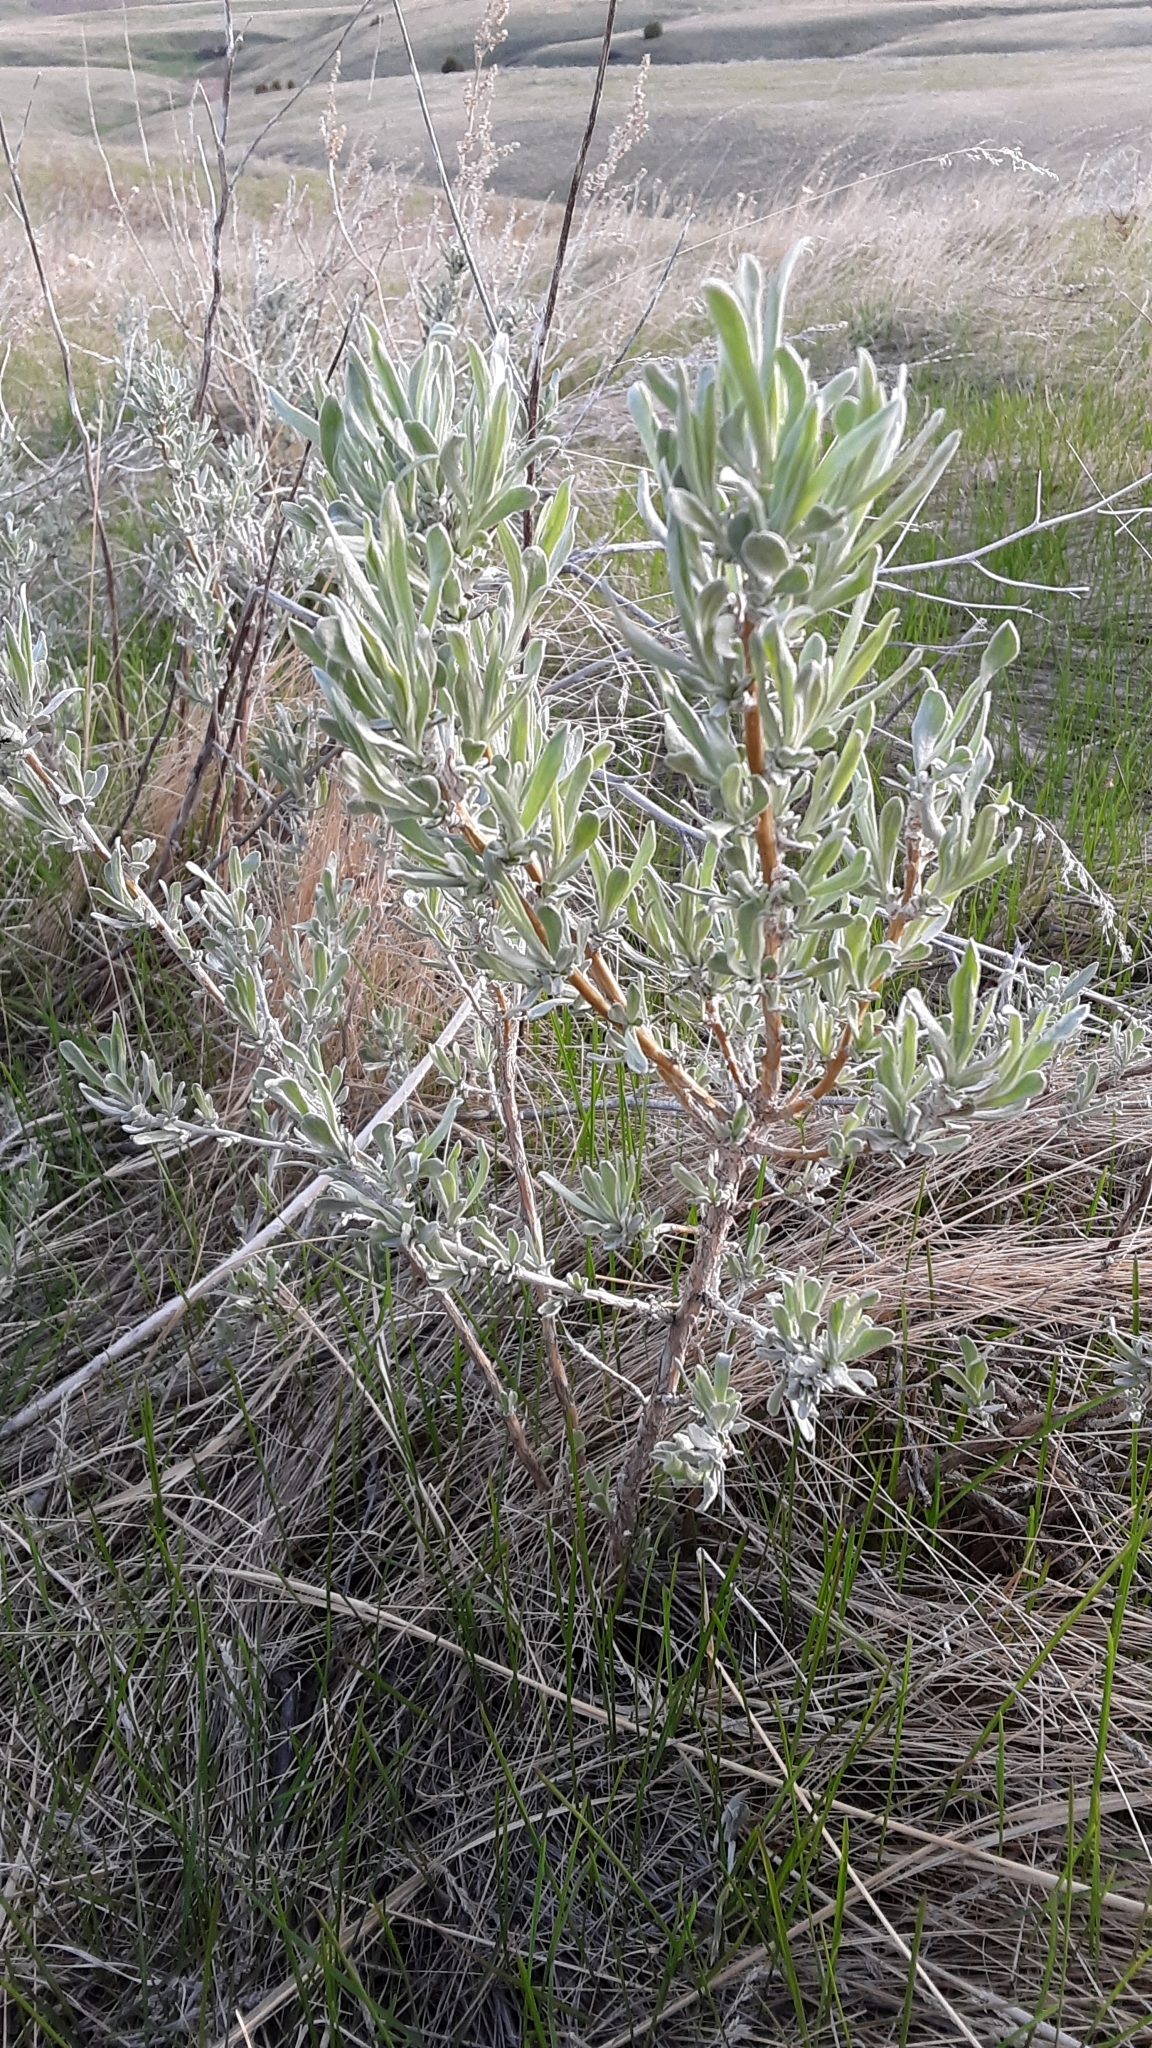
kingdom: Plantae
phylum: Tracheophyta
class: Magnoliopsida
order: Asterales
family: Asteraceae
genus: Artemisia
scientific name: Artemisia cana
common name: Silver sagebrush
